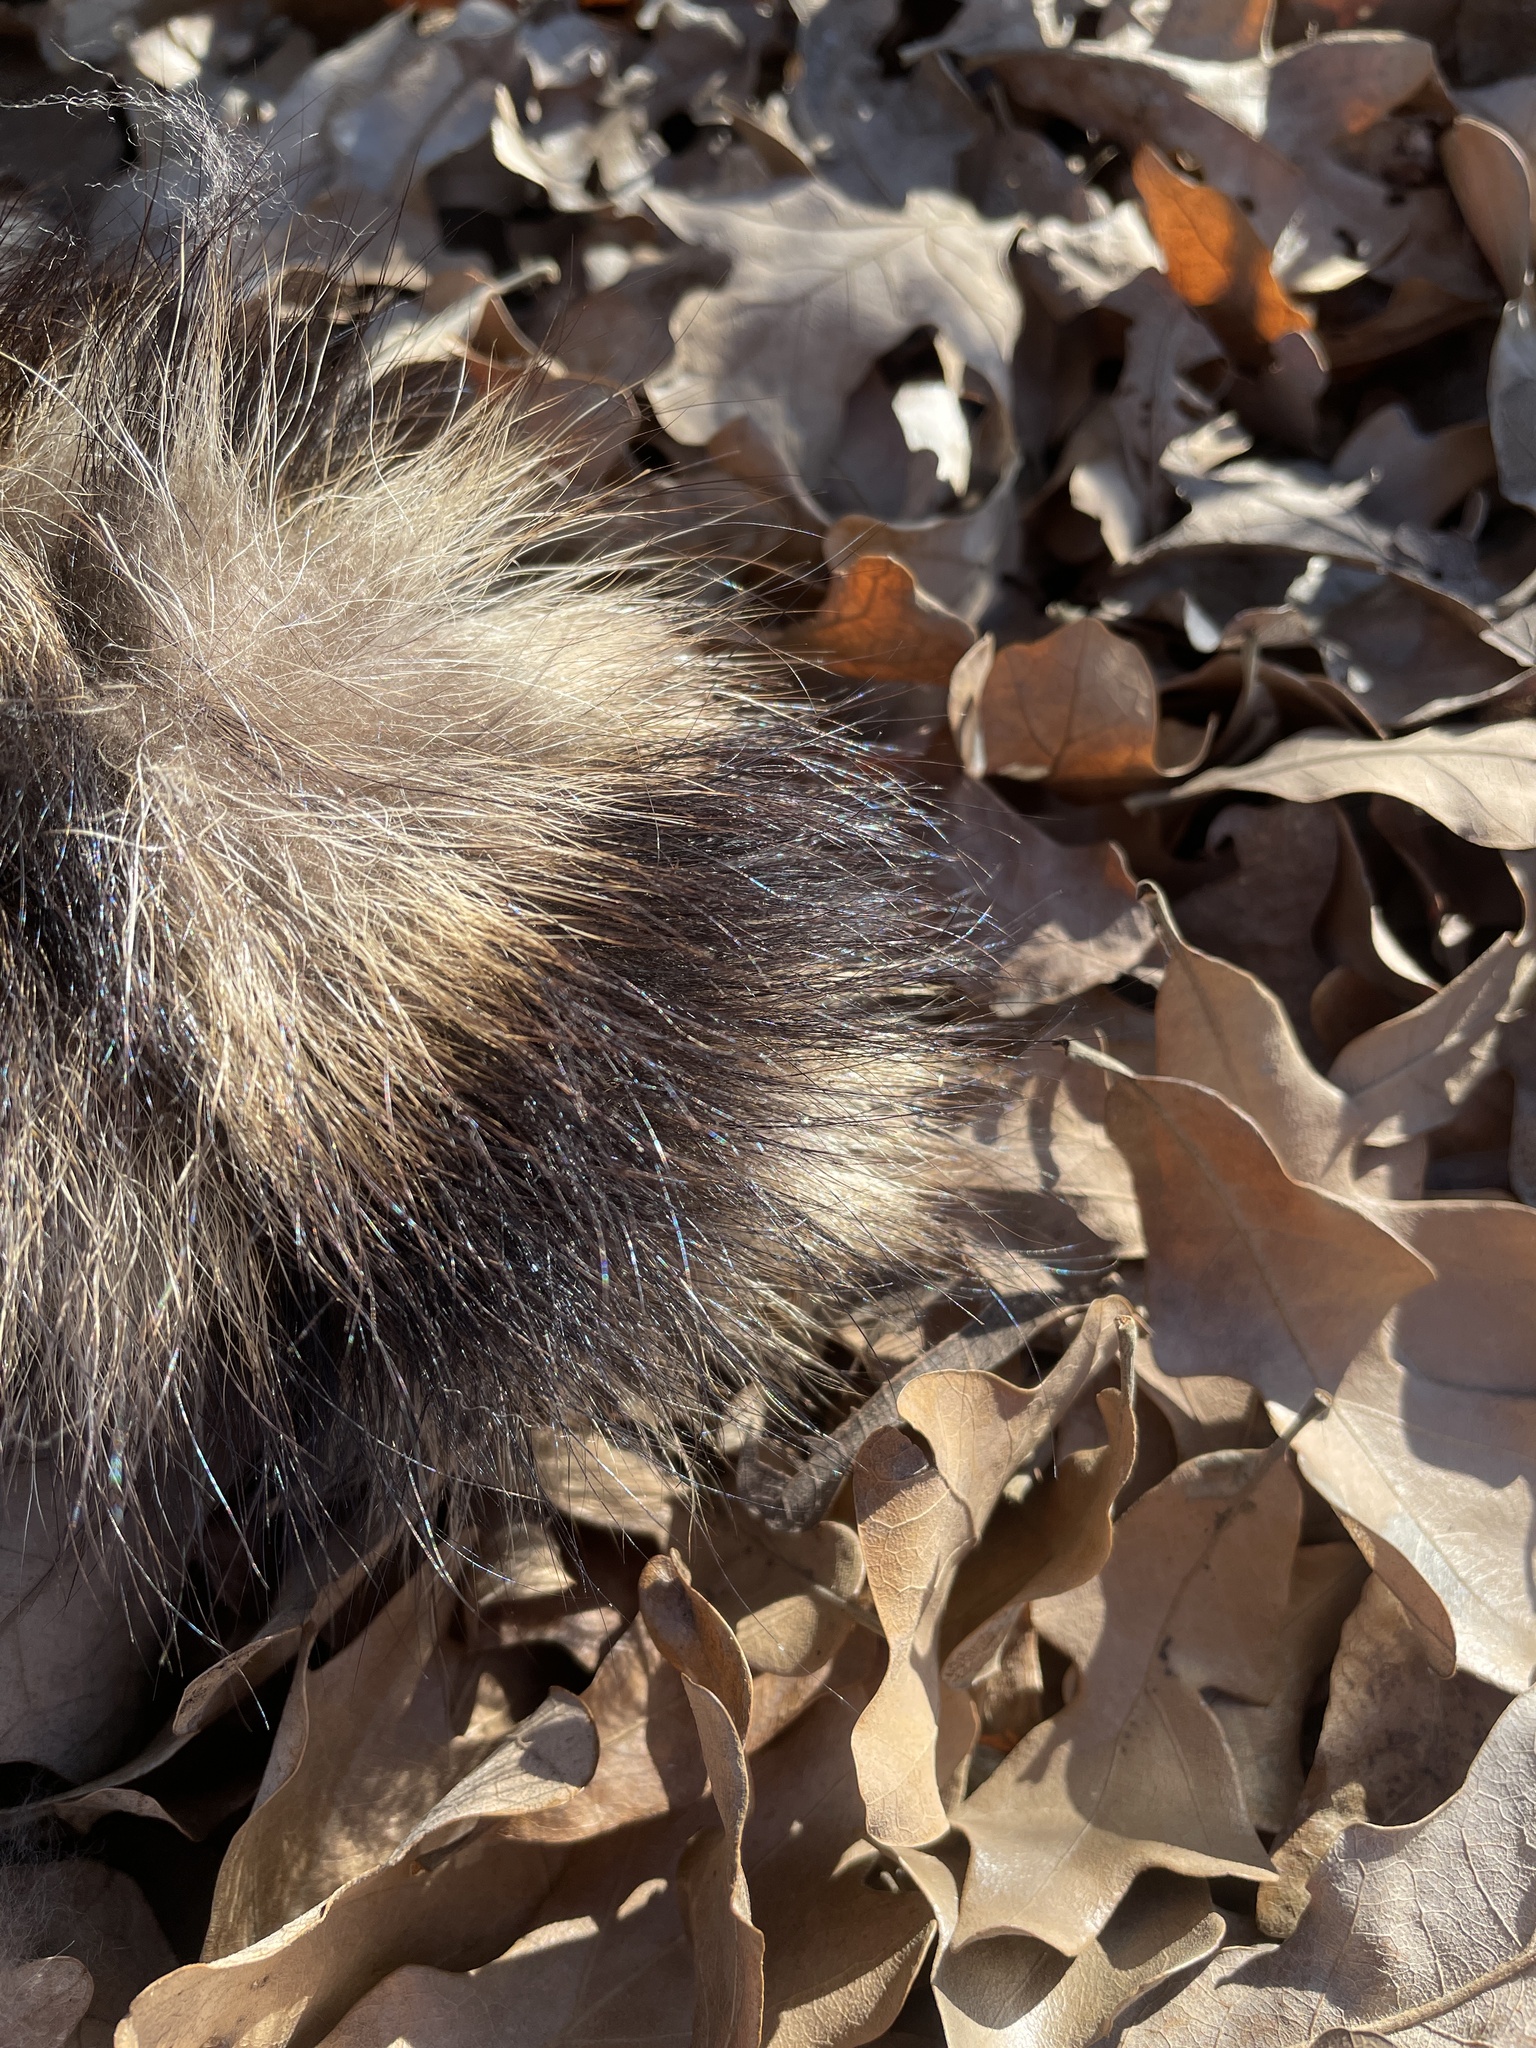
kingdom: Animalia
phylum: Chordata
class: Mammalia
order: Carnivora
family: Procyonidae
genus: Procyon
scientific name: Procyon lotor
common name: Raccoon
